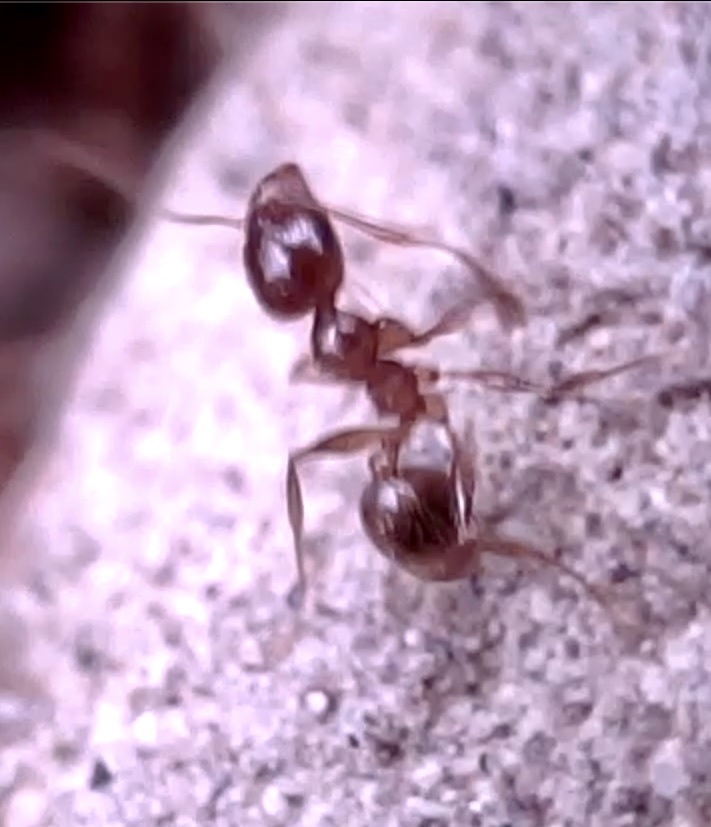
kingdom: Animalia
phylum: Arthropoda
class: Insecta
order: Hymenoptera
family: Formicidae
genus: Pheidole
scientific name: Pheidole pallidula
